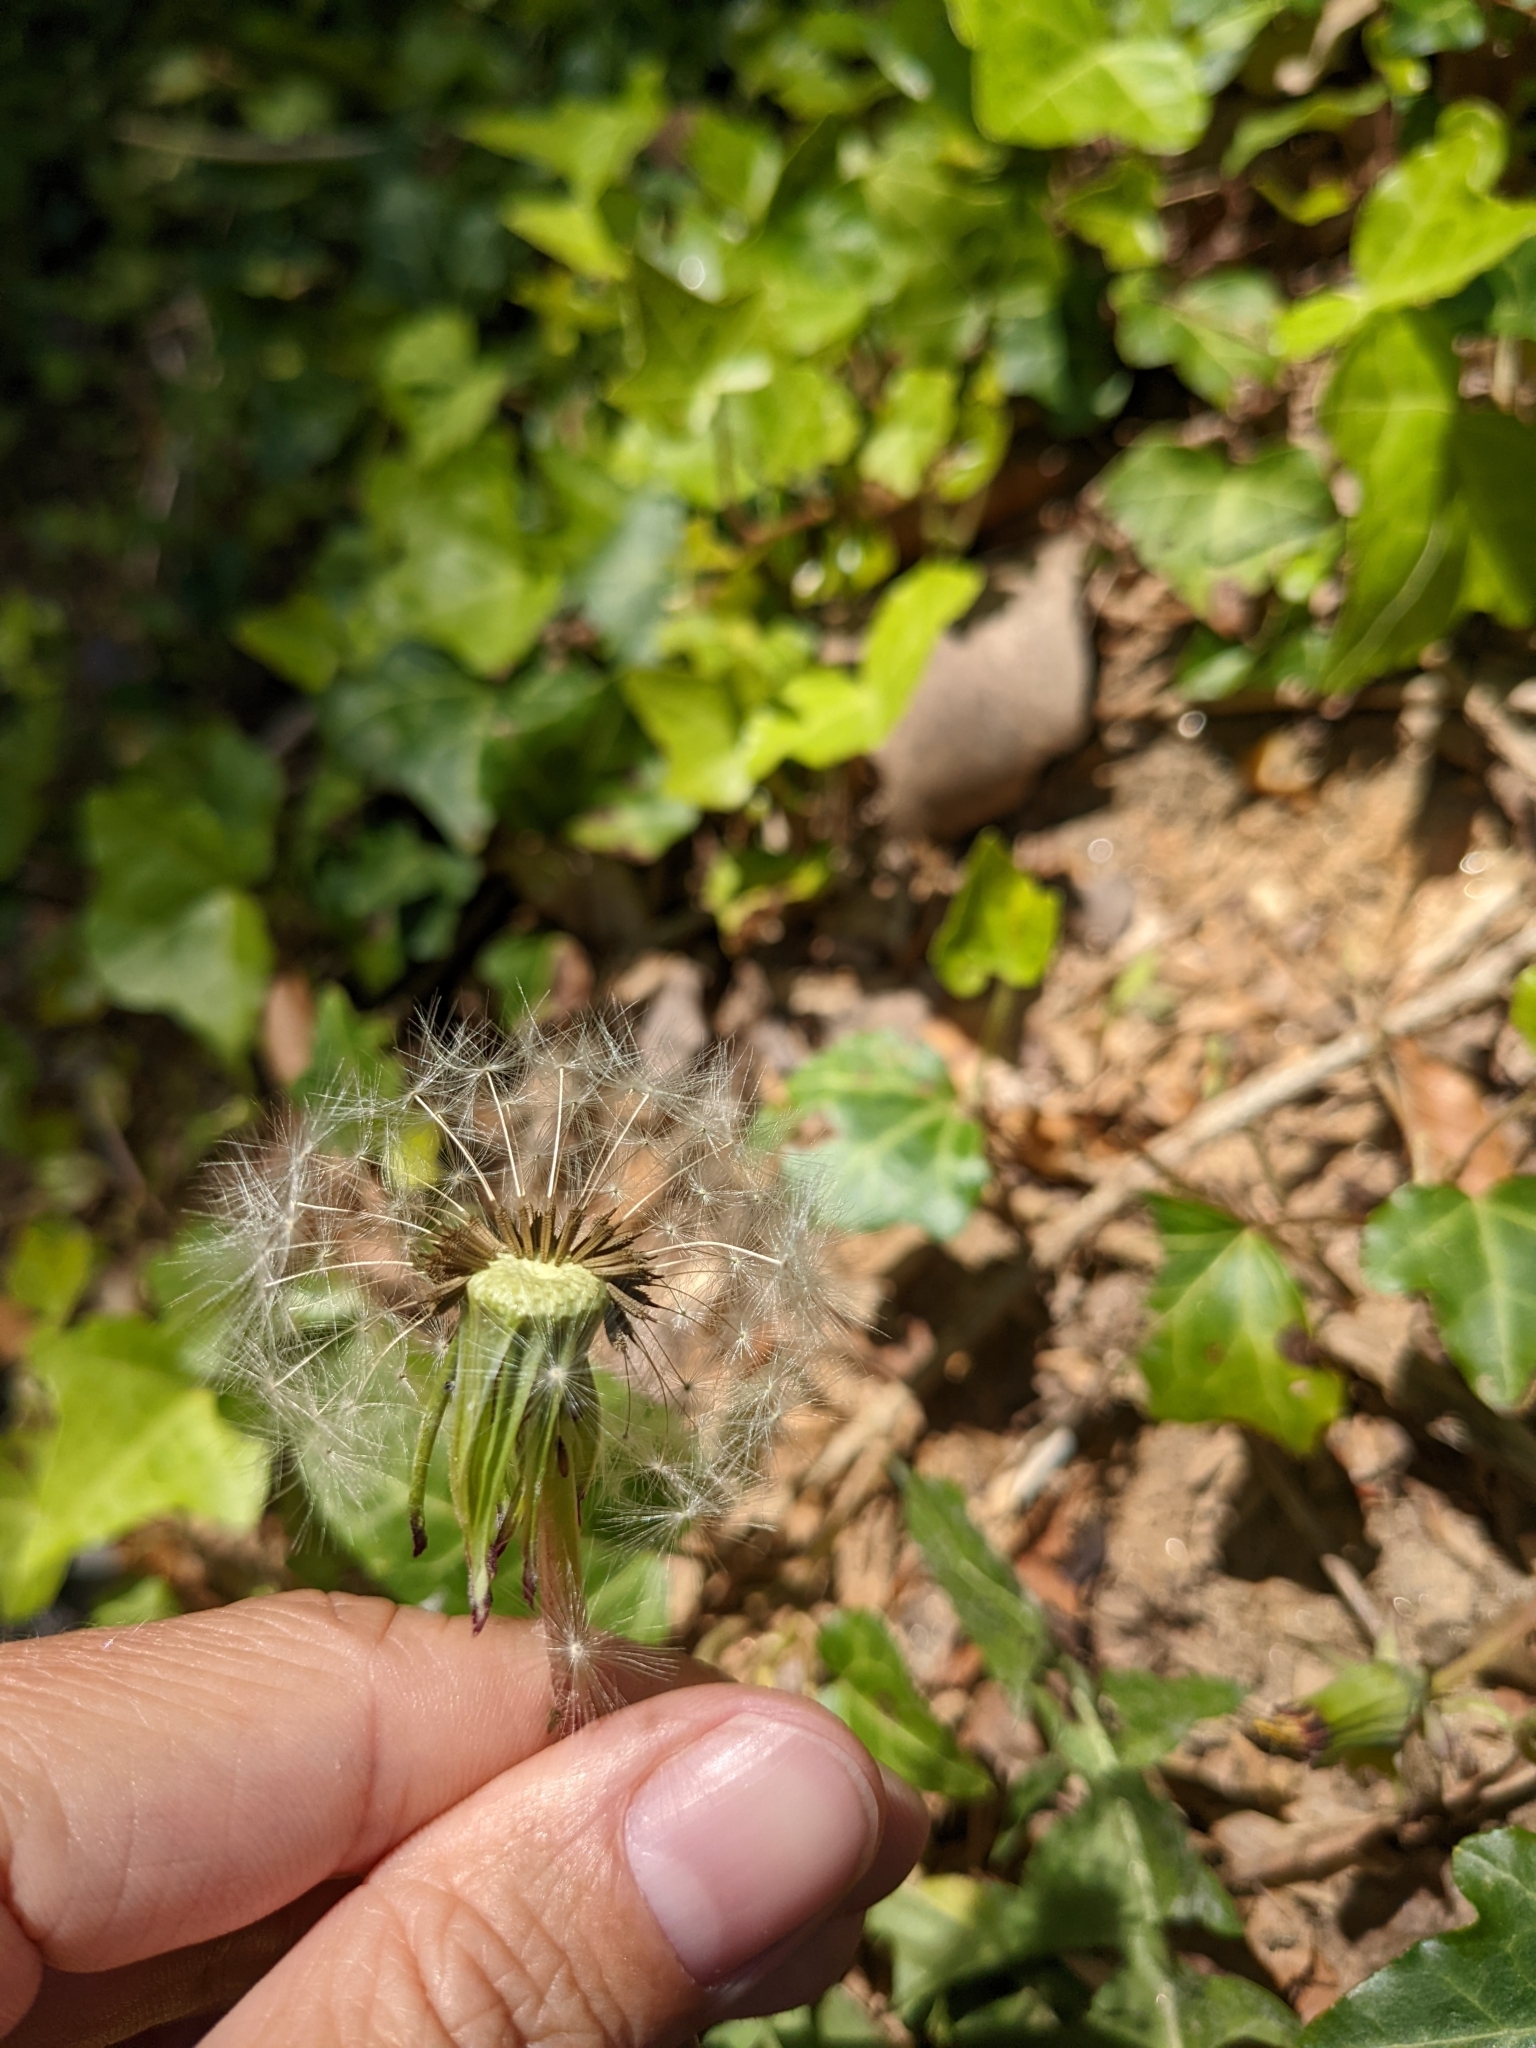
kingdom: Plantae
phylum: Tracheophyta
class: Magnoliopsida
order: Asterales
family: Asteraceae
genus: Taraxacum
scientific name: Taraxacum officinale
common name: Common dandelion
